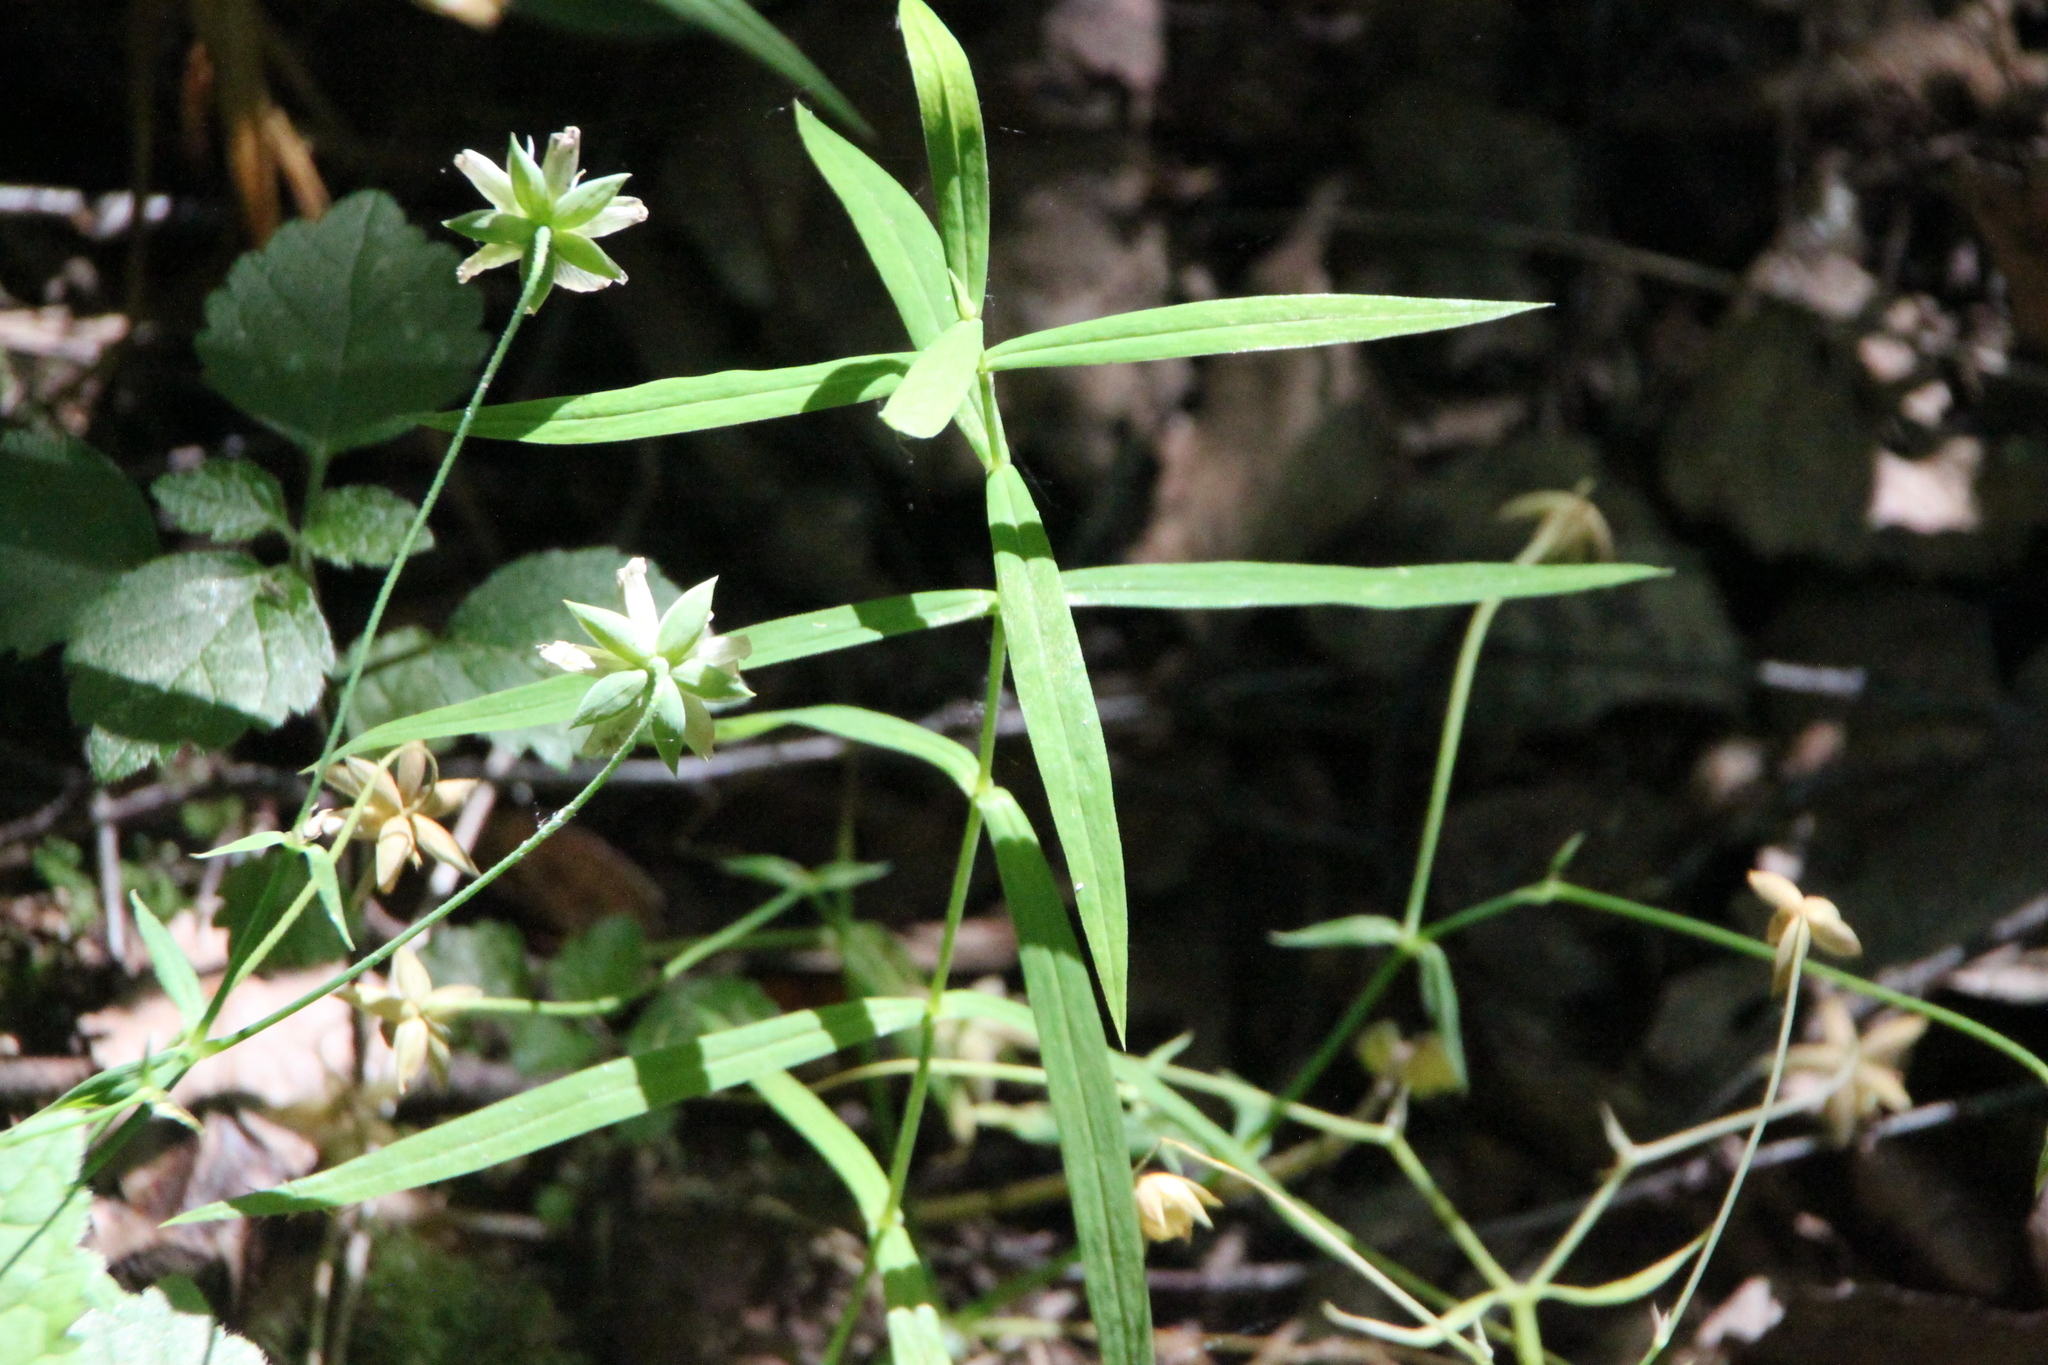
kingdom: Plantae
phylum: Tracheophyta
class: Magnoliopsida
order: Caryophyllales
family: Caryophyllaceae
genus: Rabelera
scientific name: Rabelera holostea
